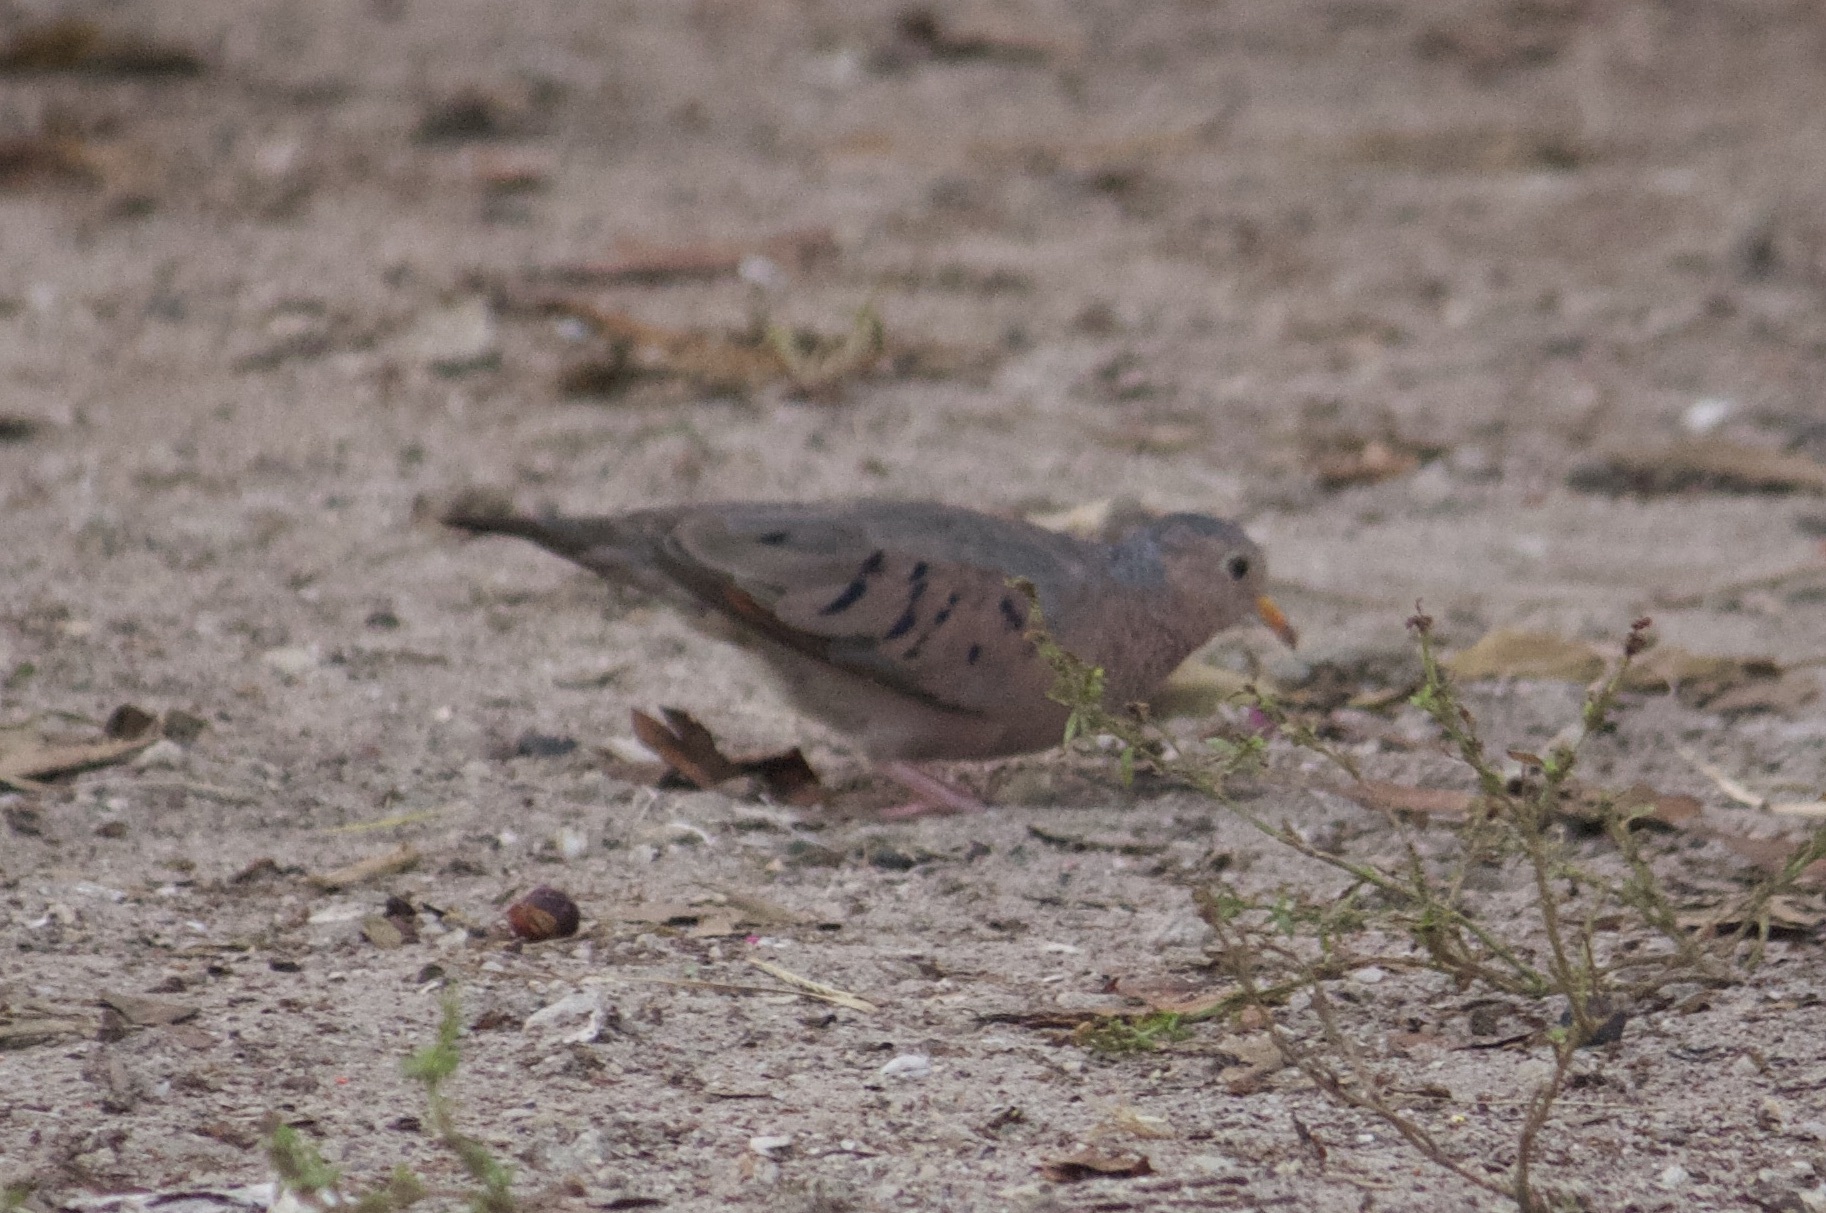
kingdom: Animalia
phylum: Chordata
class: Aves
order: Columbiformes
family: Columbidae
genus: Columbina
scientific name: Columbina passerina
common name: Common ground-dove
